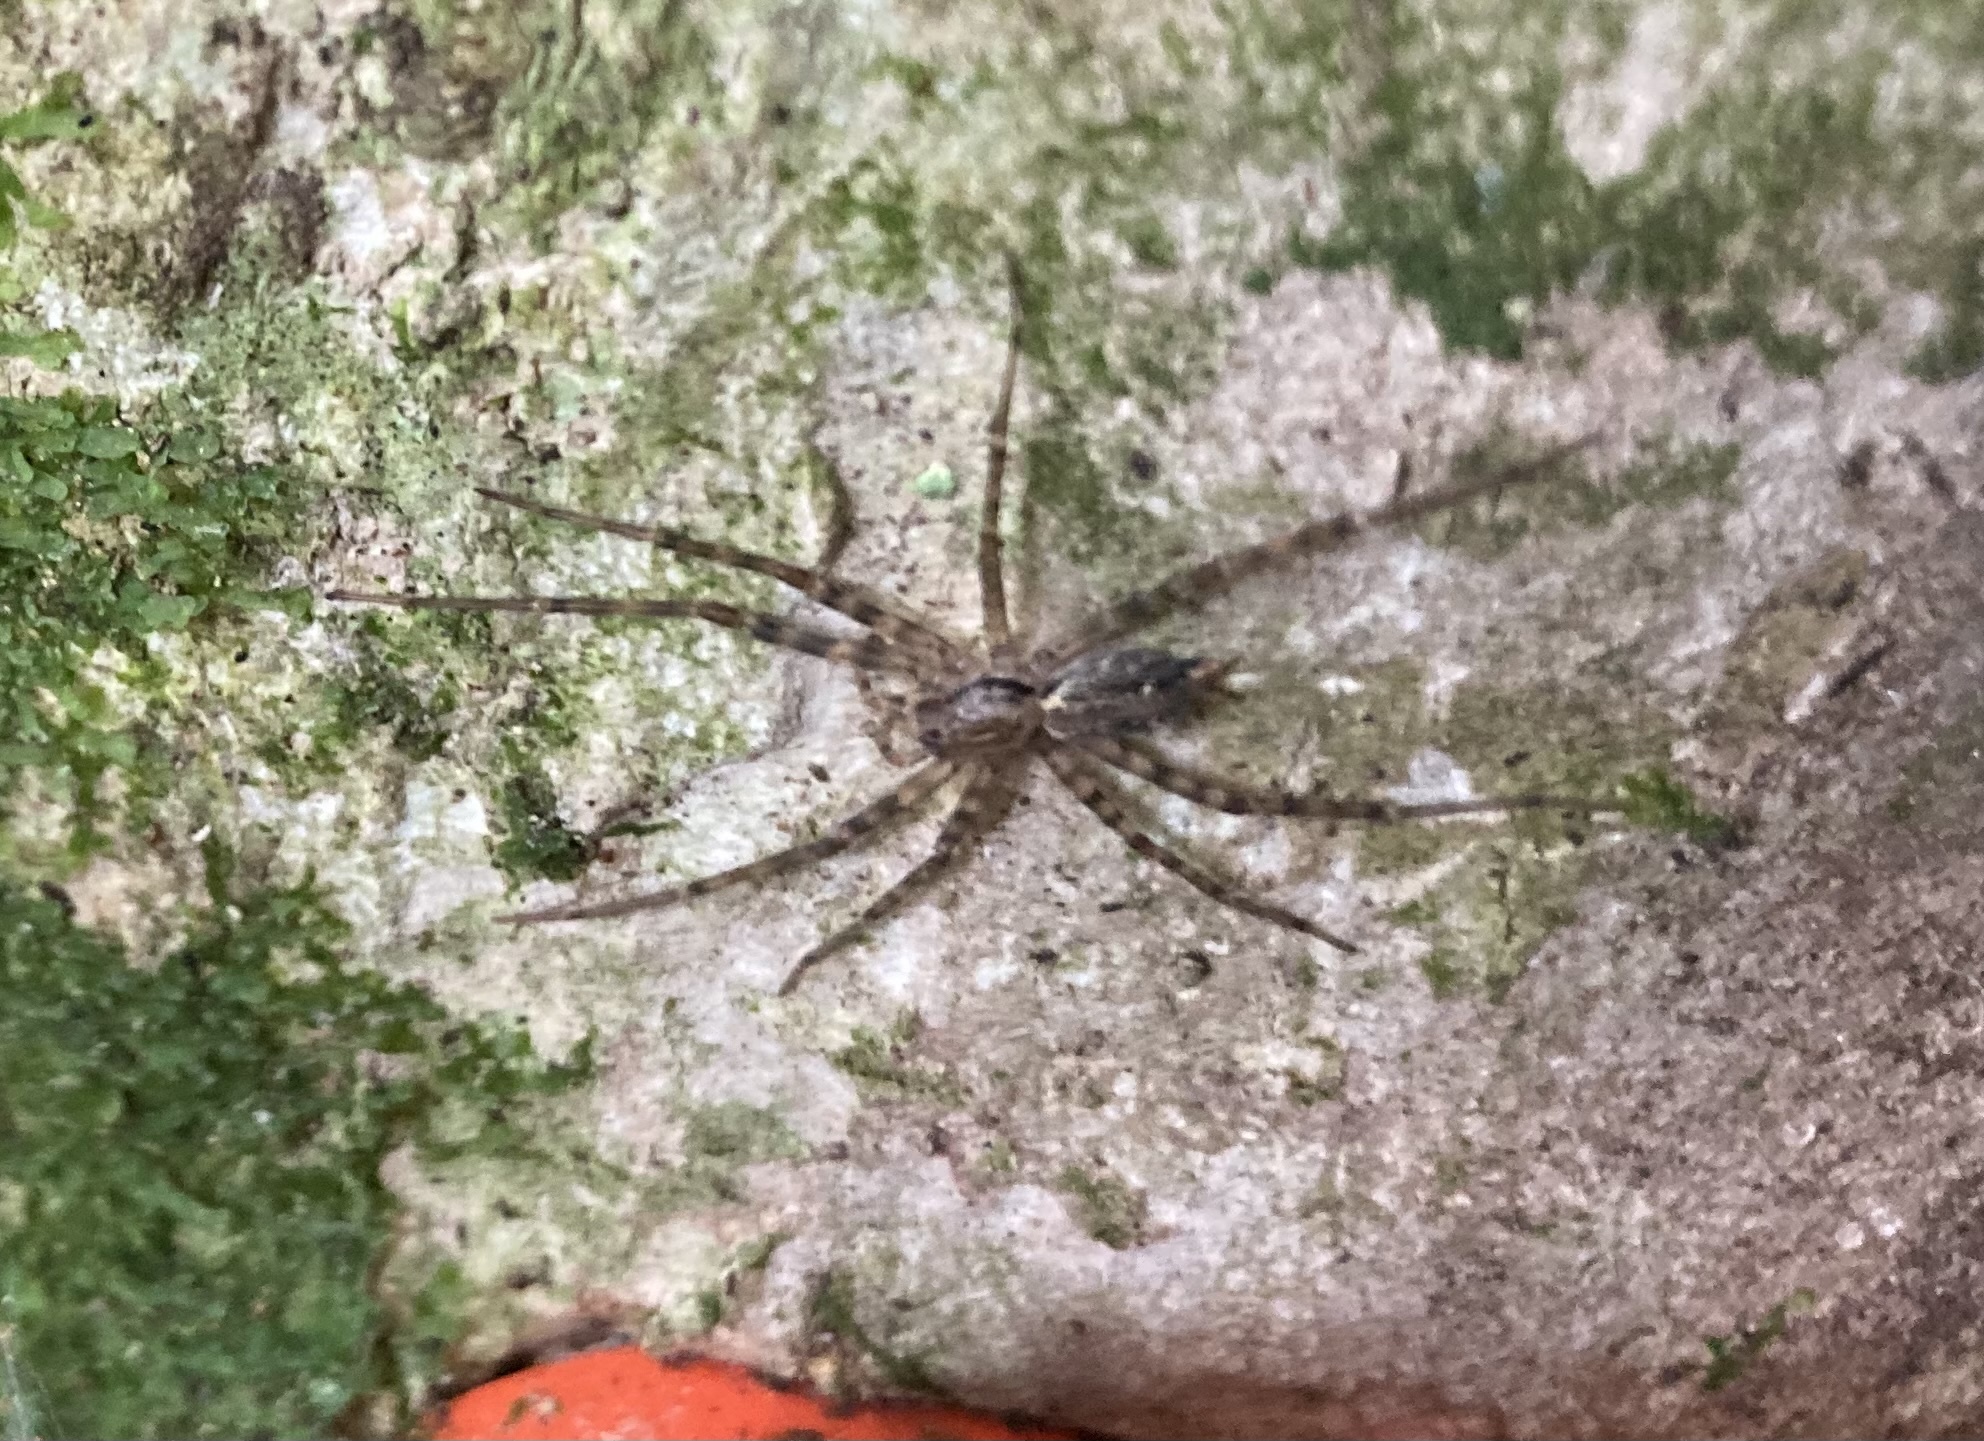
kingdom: Animalia
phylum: Arthropoda
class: Arachnida
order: Araneae
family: Stiphidiidae
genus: Stiphidion
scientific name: Stiphidion facetum
